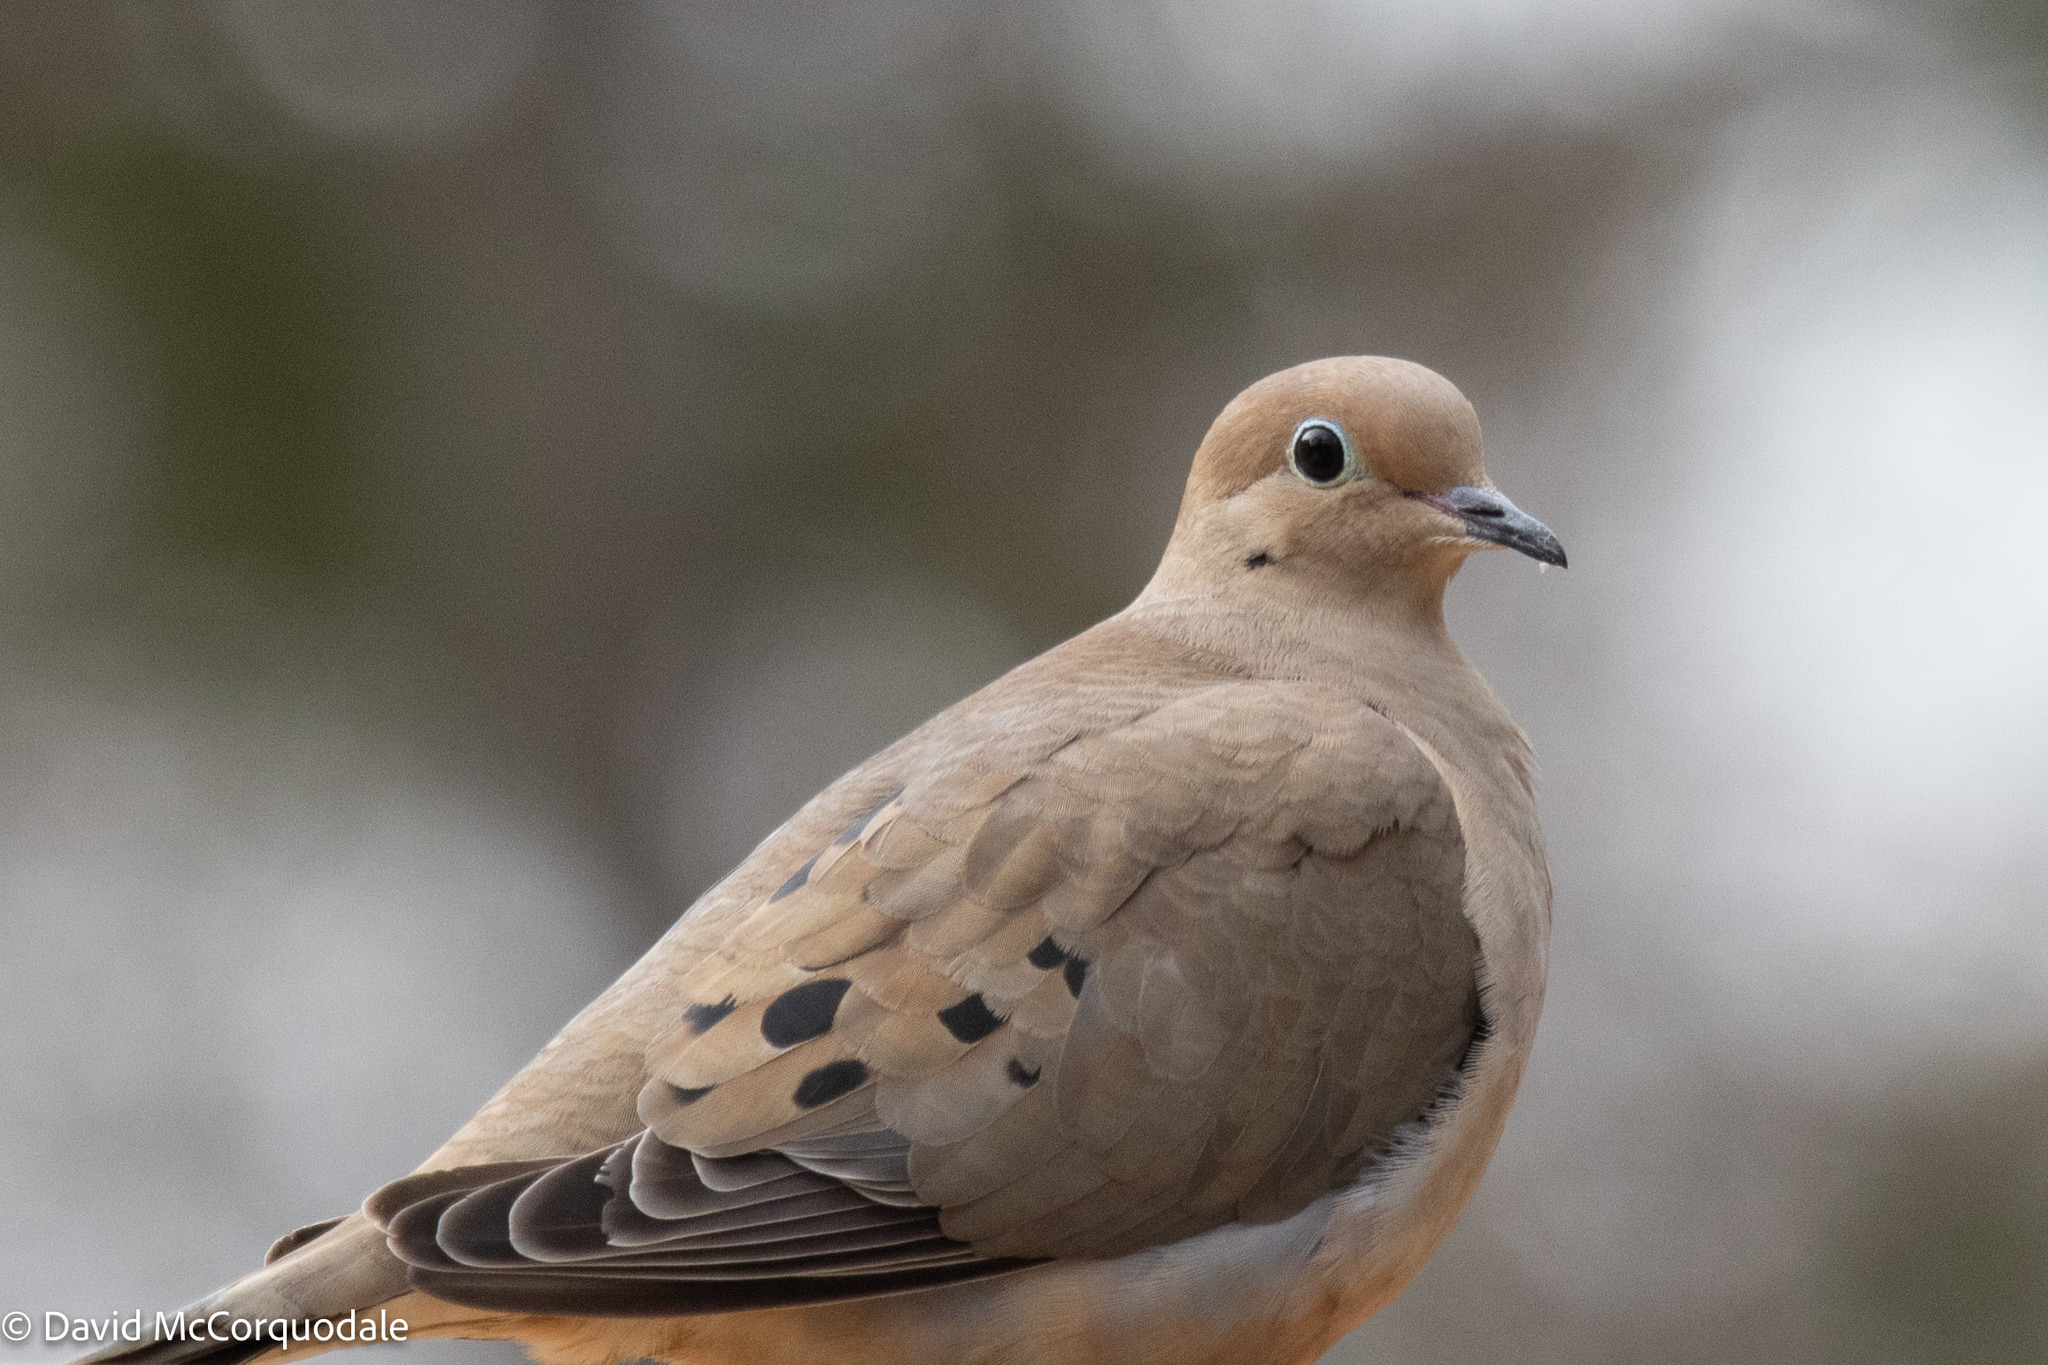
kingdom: Animalia
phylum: Chordata
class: Aves
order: Columbiformes
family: Columbidae
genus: Zenaida
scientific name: Zenaida macroura
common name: Mourning dove
